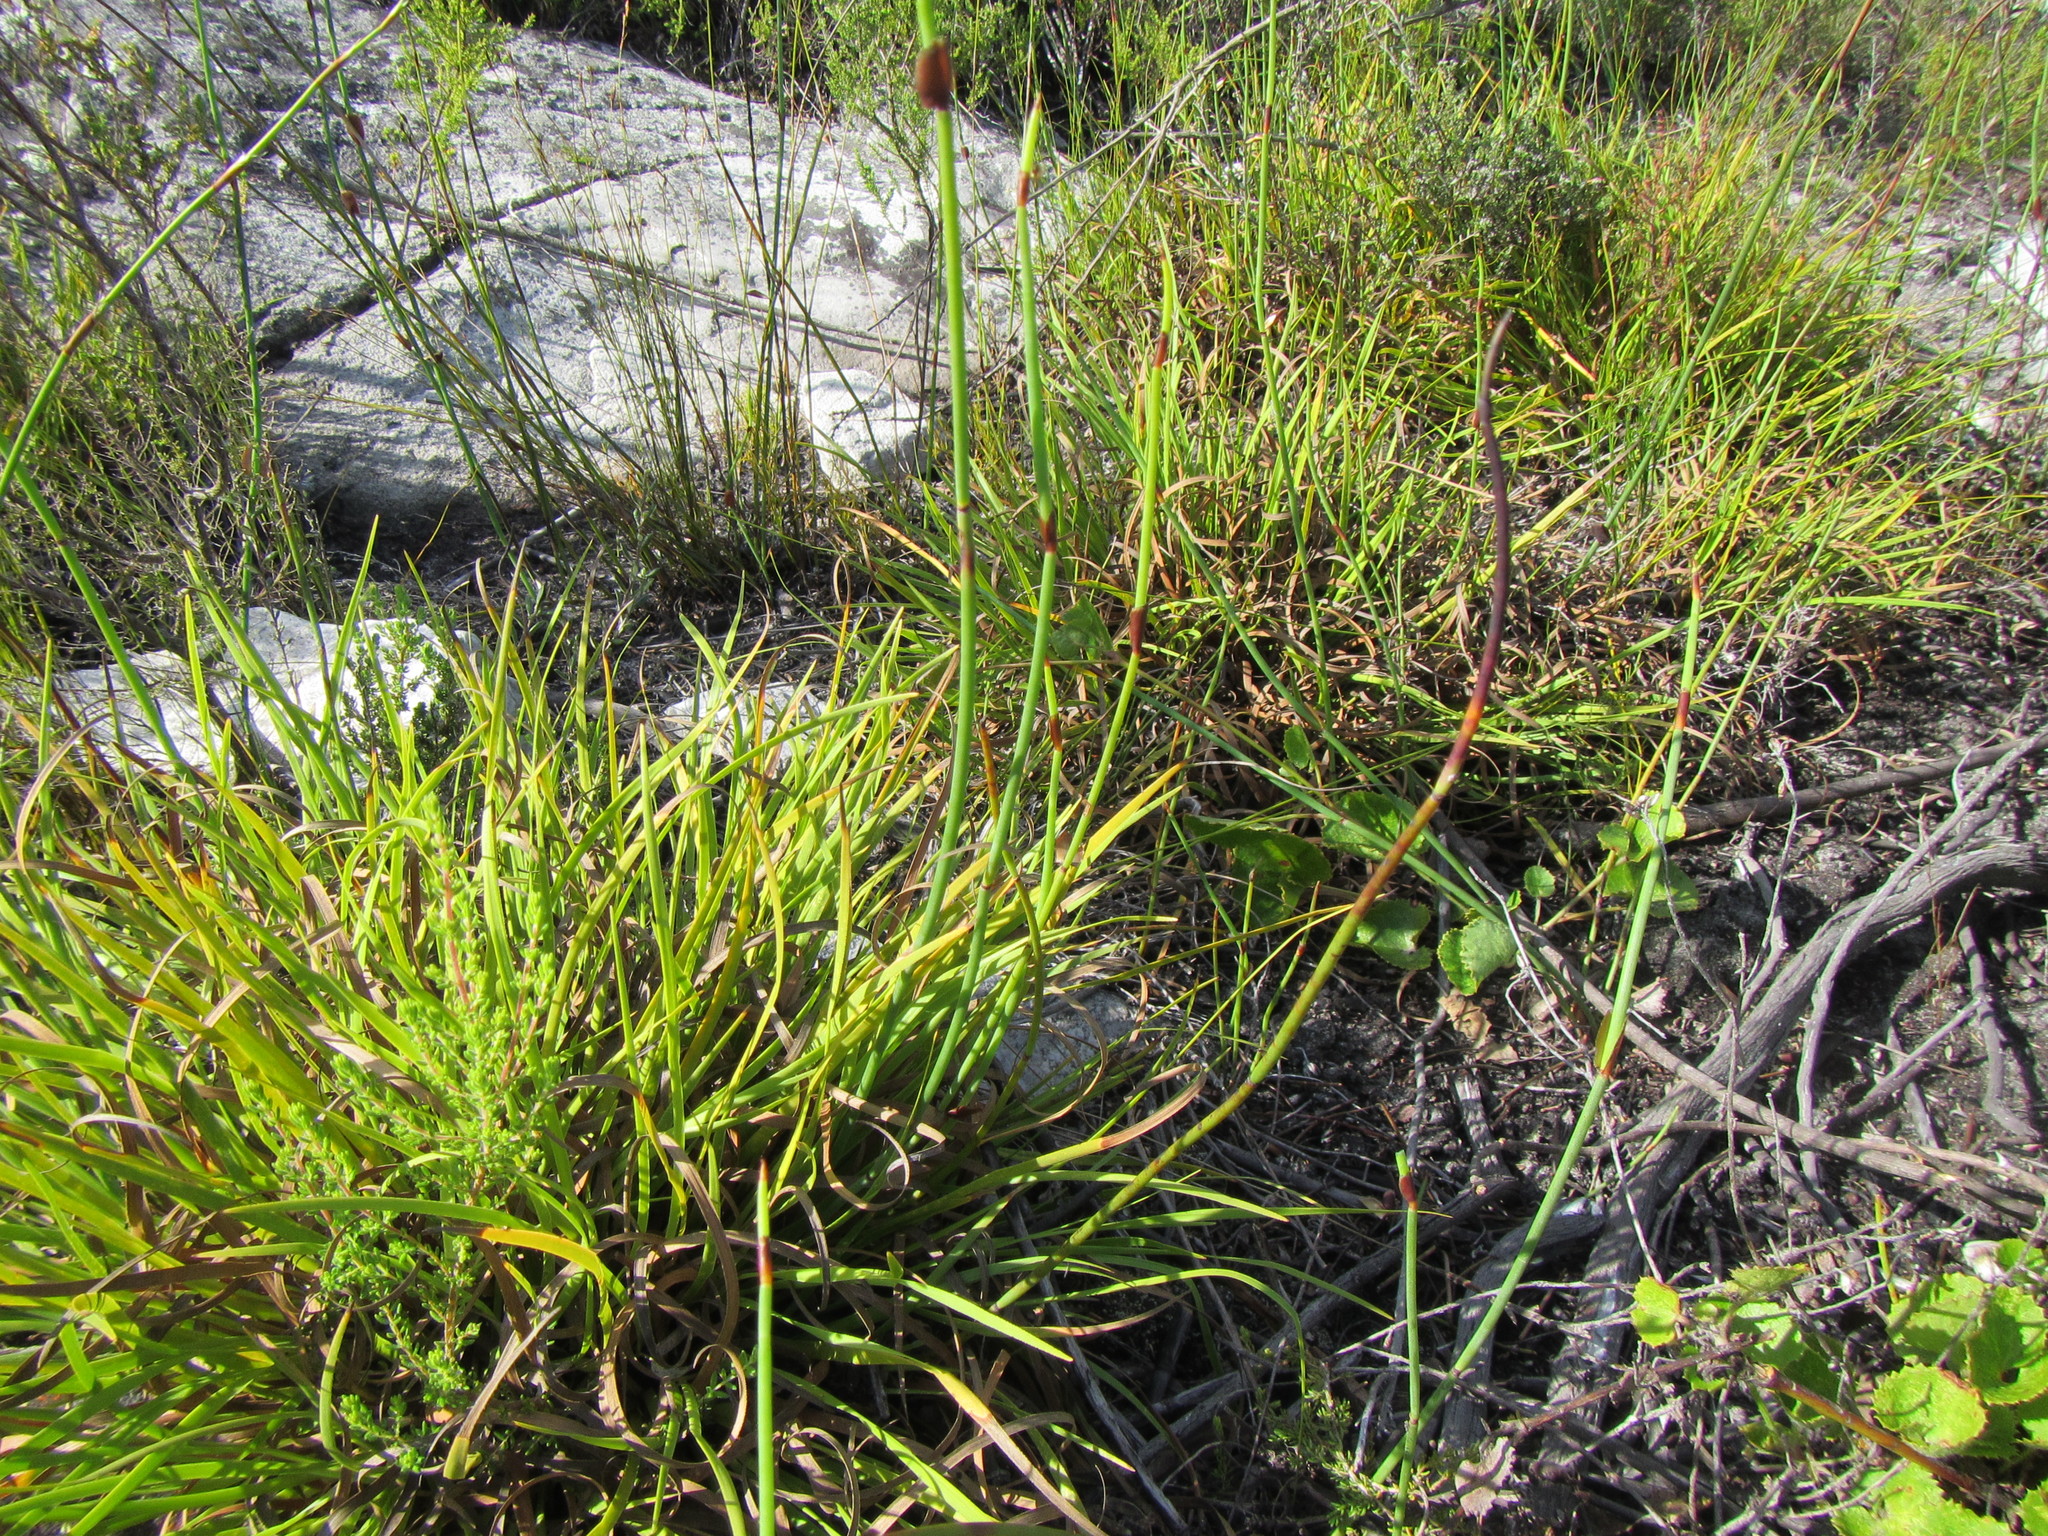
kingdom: Plantae
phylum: Tracheophyta
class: Liliopsida
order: Poales
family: Cyperaceae
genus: Capeobolus
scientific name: Capeobolus brevicaulis
